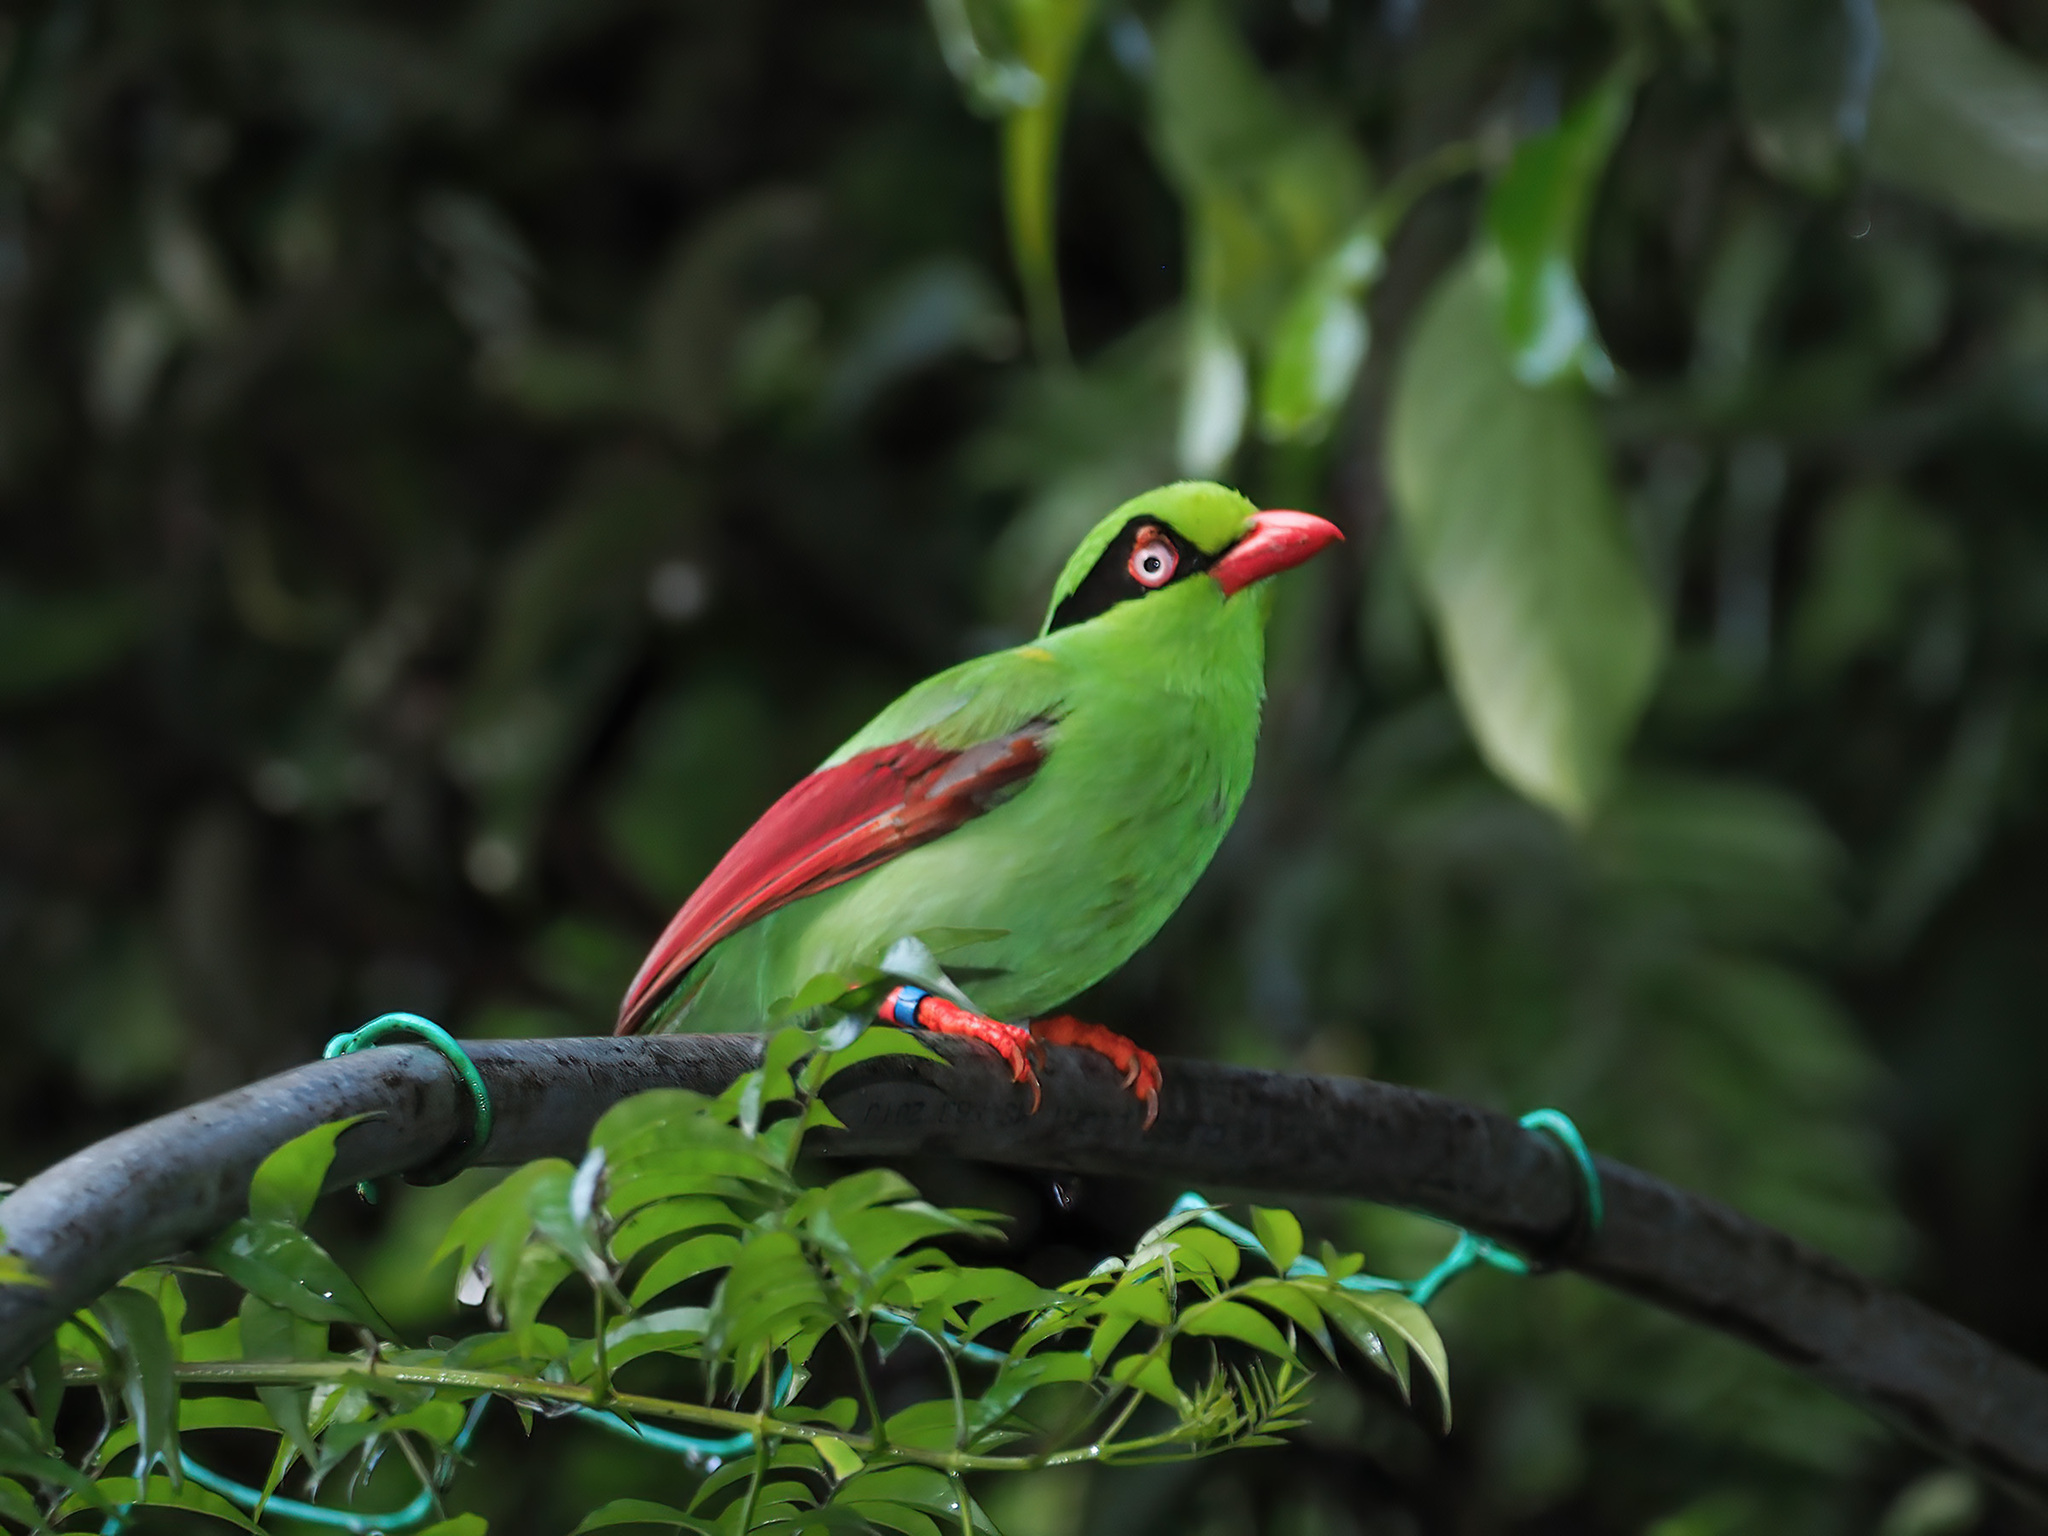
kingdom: Animalia
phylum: Chordata
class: Aves
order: Passeriformes
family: Corvidae
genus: Cissa
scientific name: Cissa jefferyi
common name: Bornean green magpie
